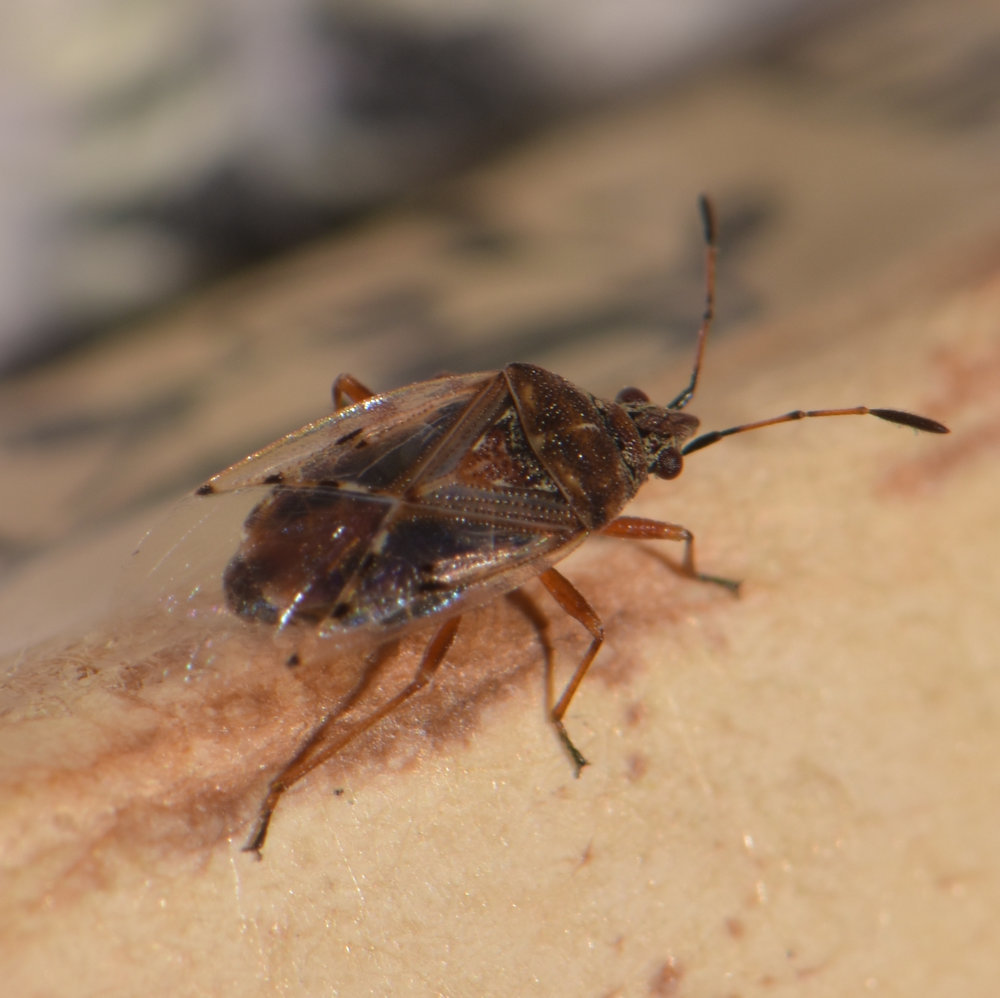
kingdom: Animalia
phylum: Arthropoda
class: Insecta
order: Hemiptera
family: Lygaeidae
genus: Kleidocerys
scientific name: Kleidocerys resedae
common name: Birch catkin bug
